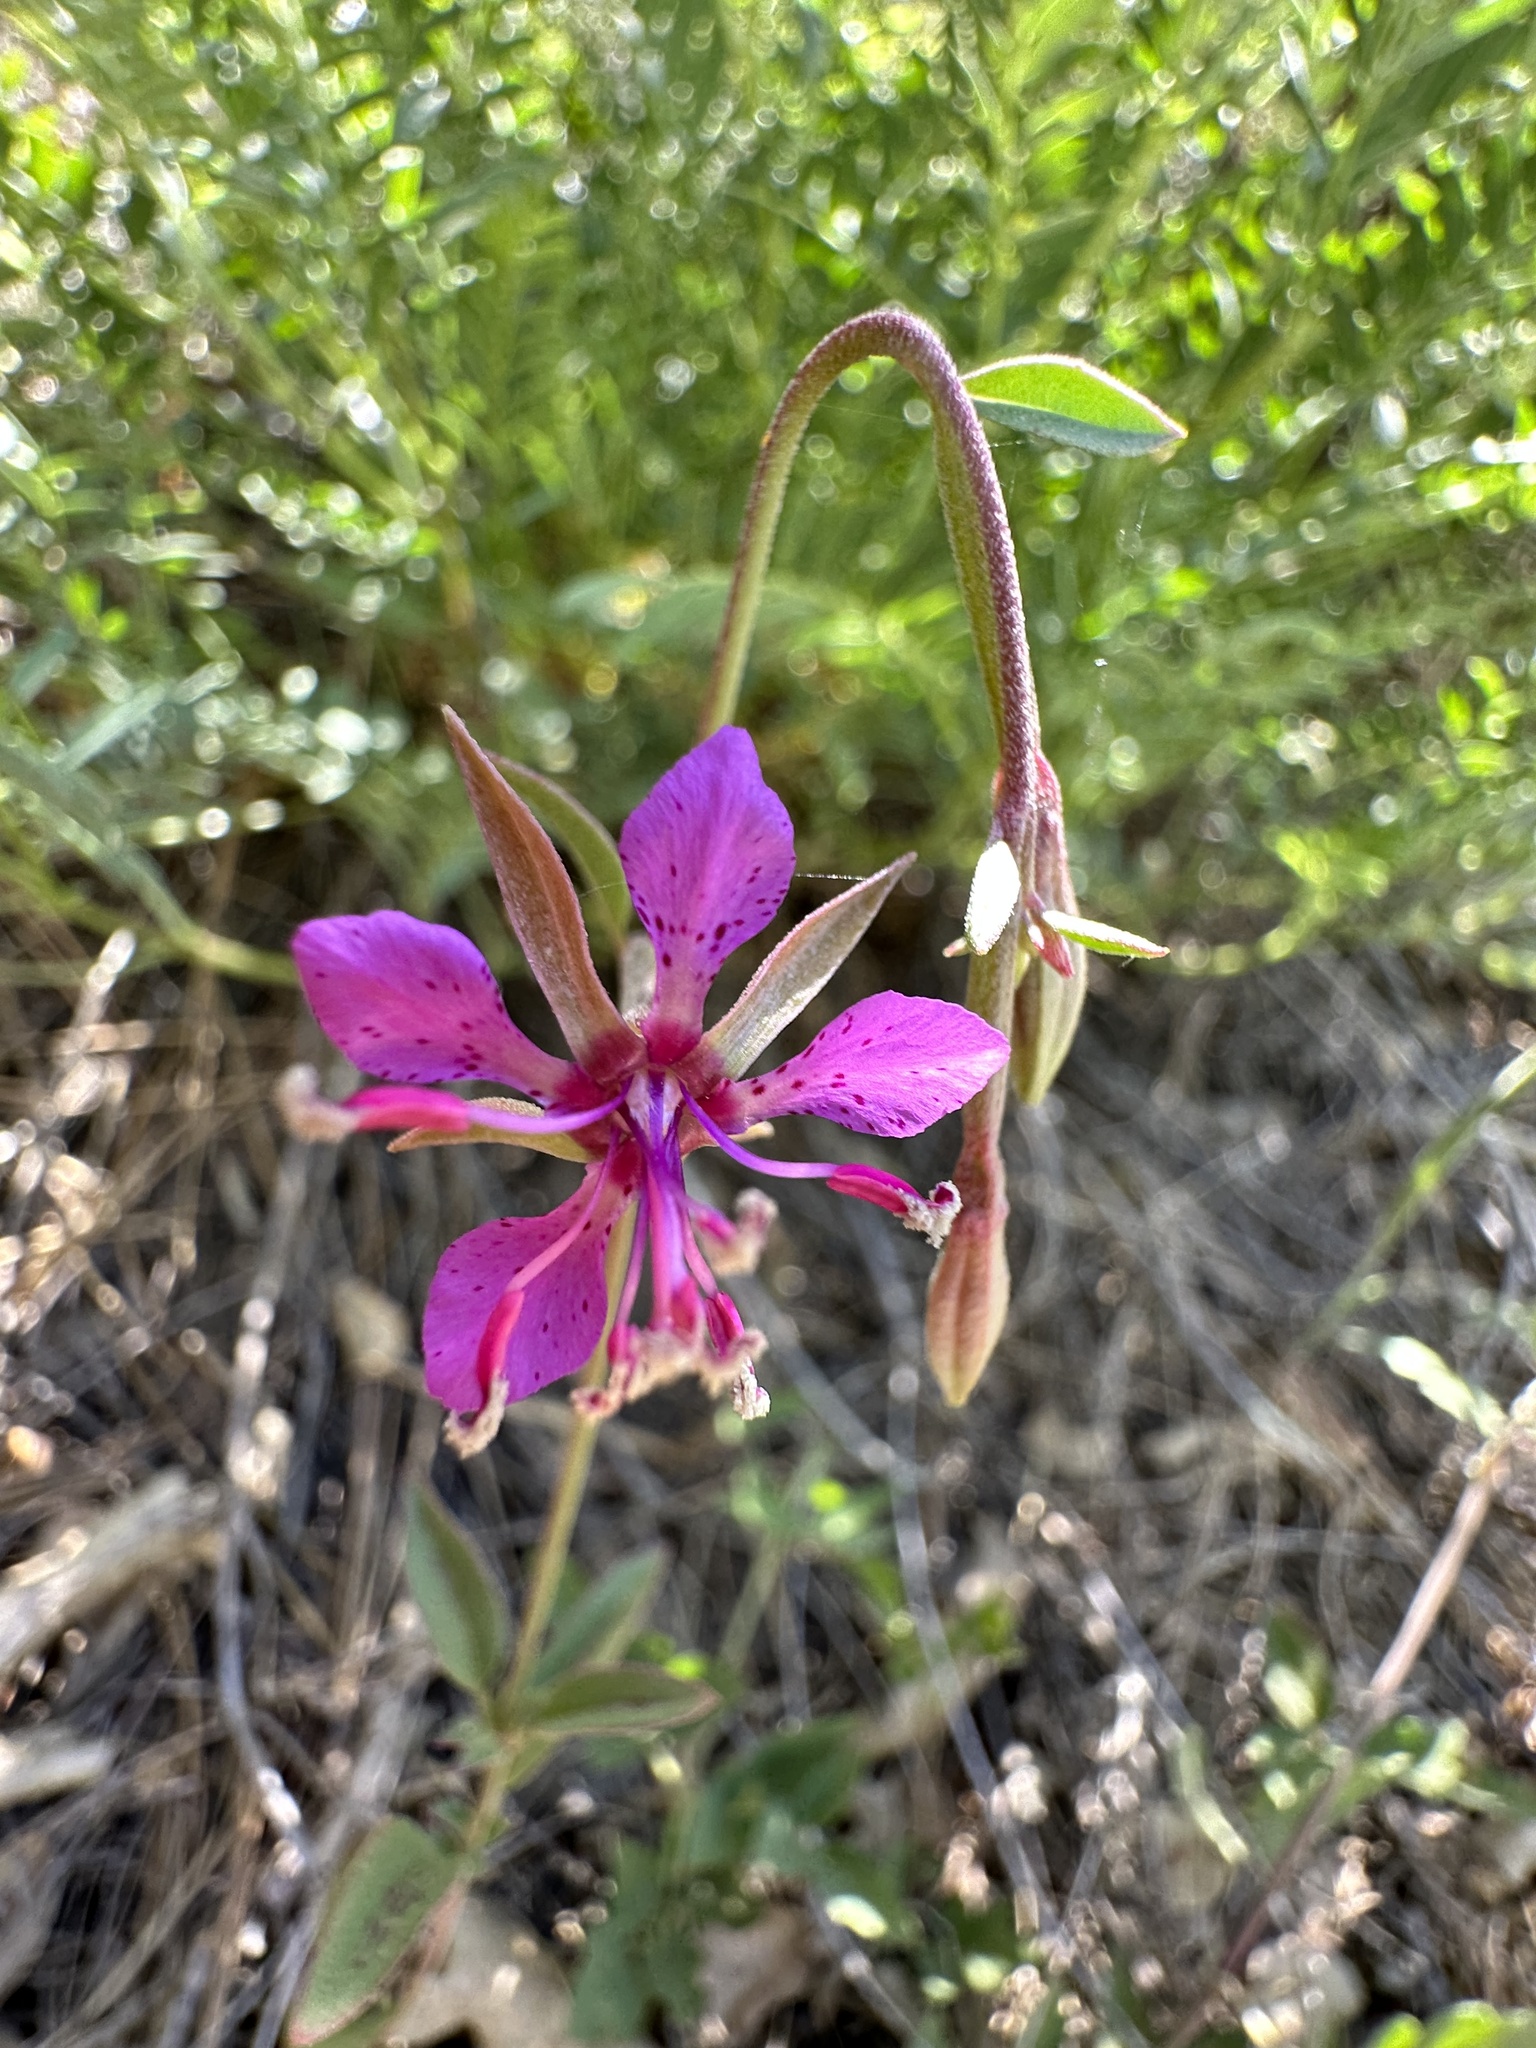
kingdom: Plantae
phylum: Tracheophyta
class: Magnoliopsida
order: Myrtales
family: Onagraceae
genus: Clarkia
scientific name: Clarkia rhomboidea
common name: Broadleaf clarkia
